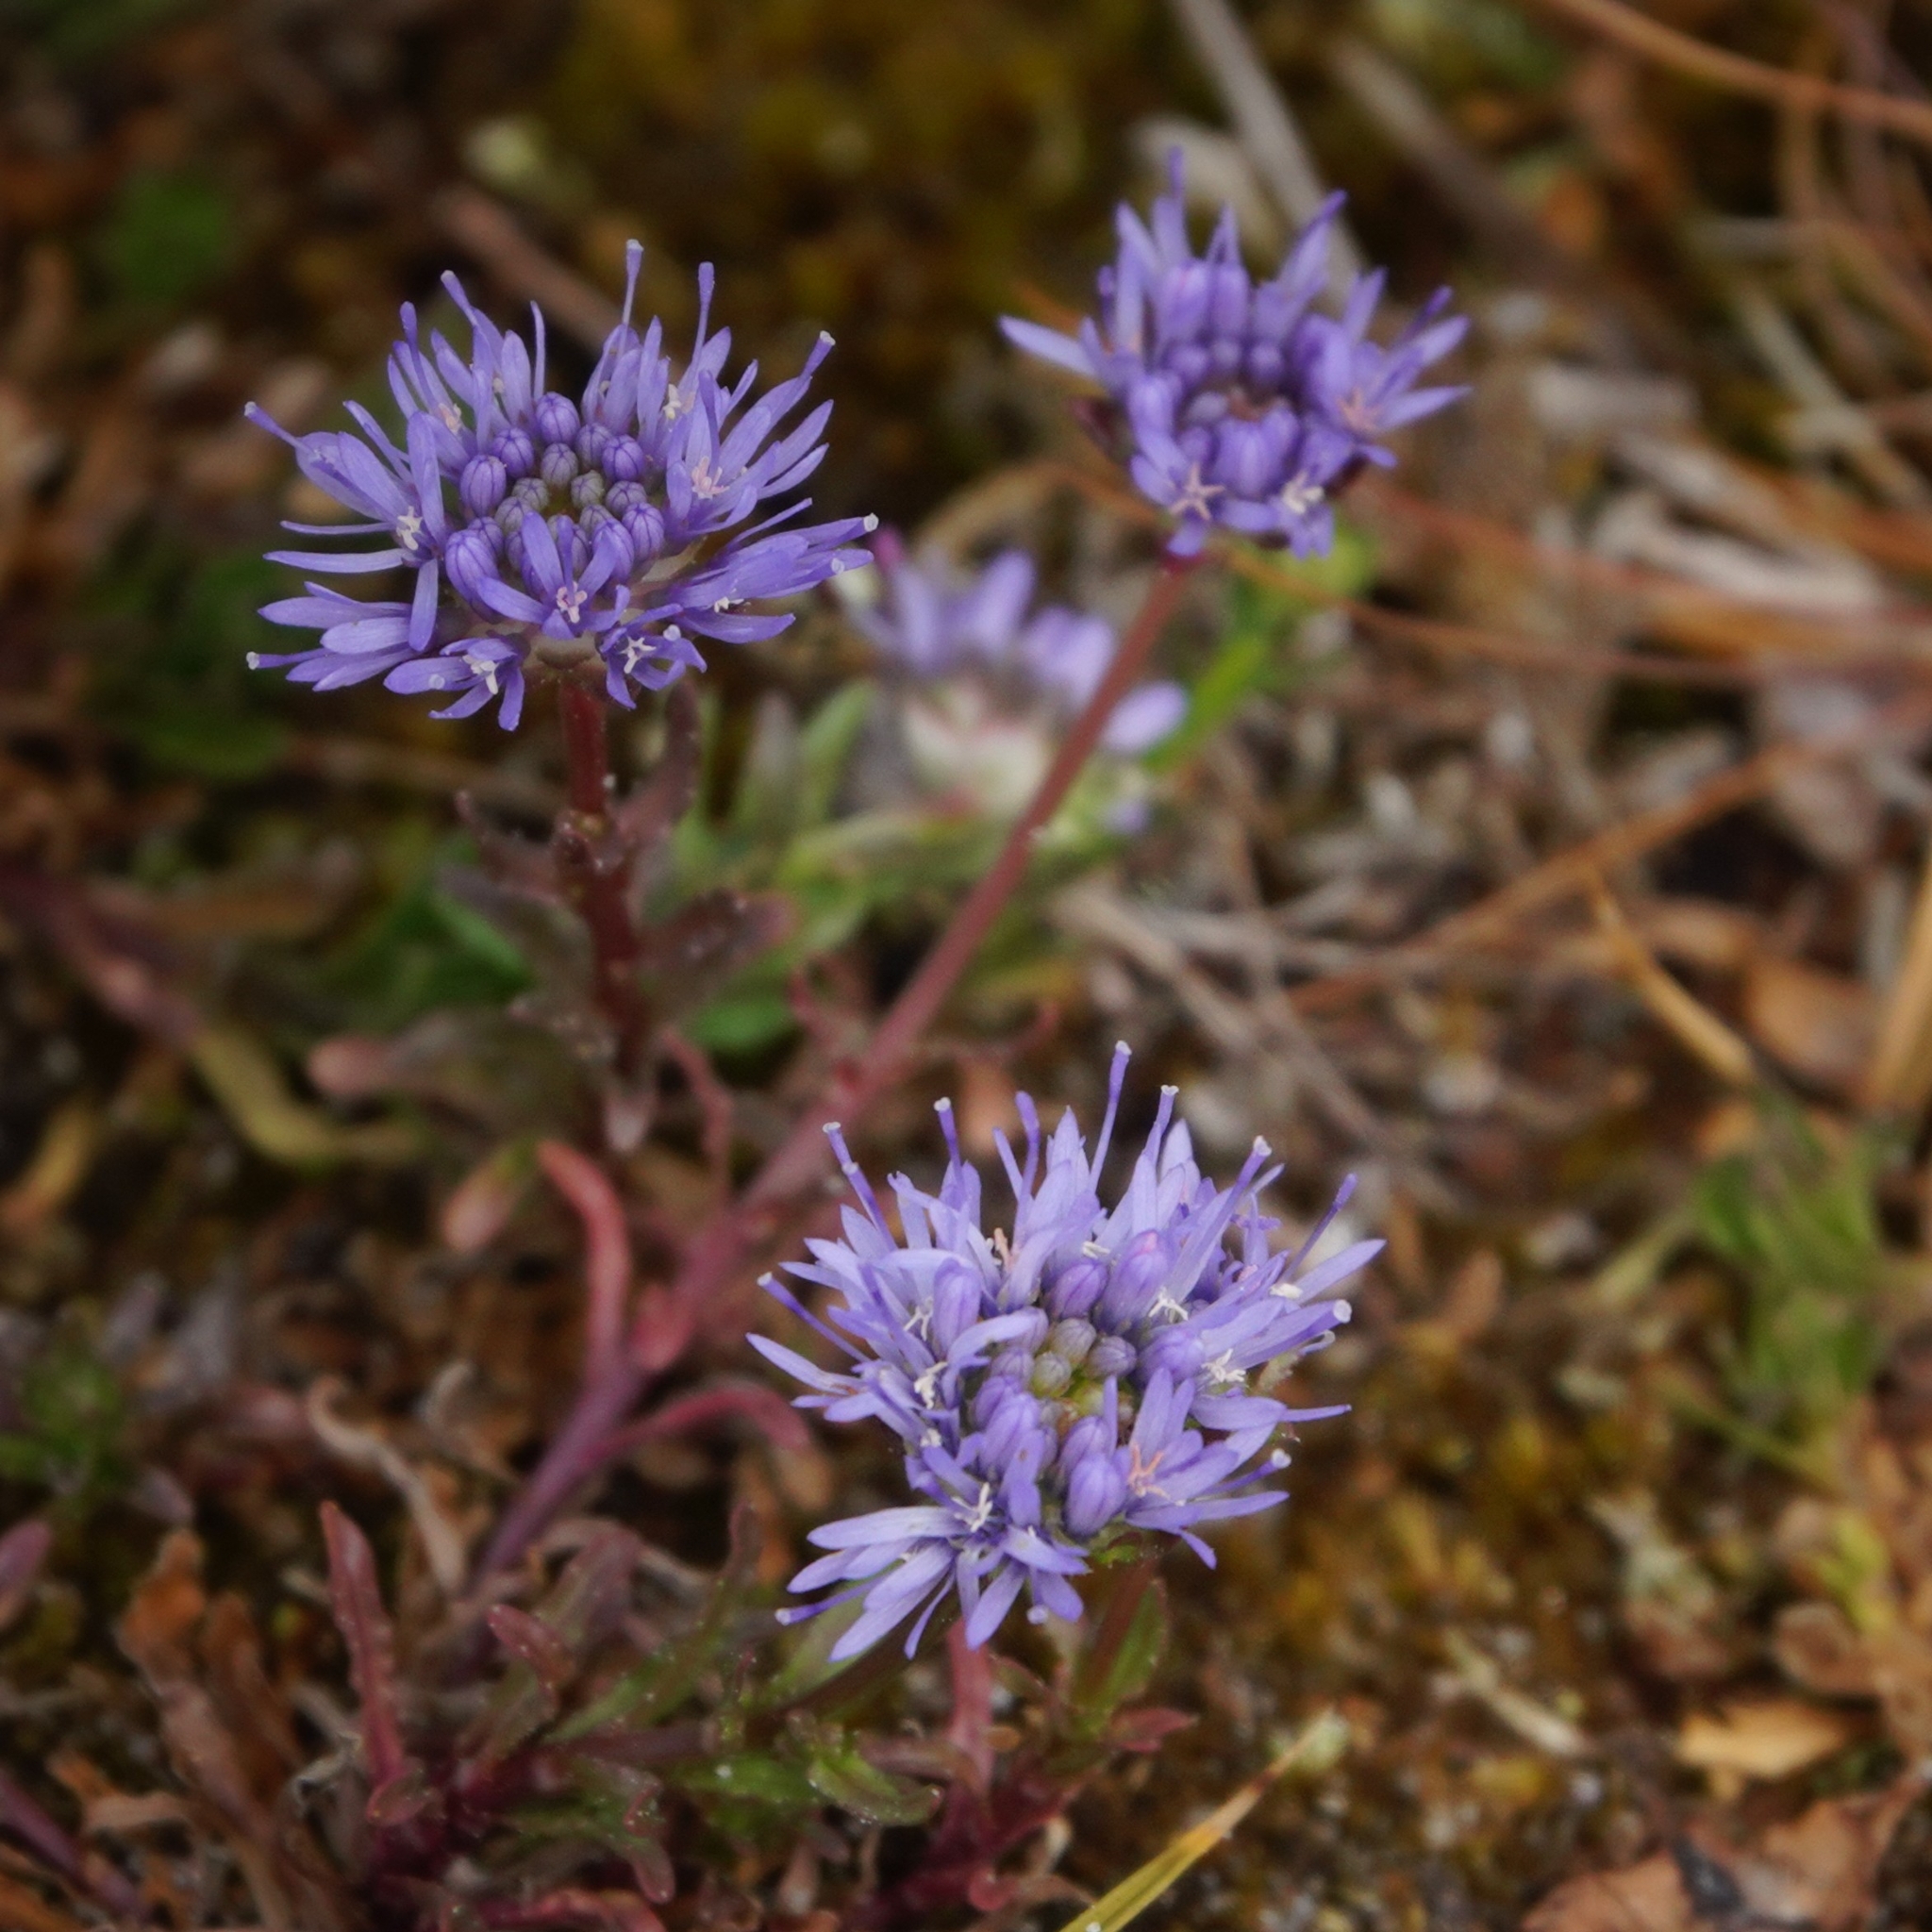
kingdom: Plantae
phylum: Tracheophyta
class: Magnoliopsida
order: Asterales
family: Campanulaceae
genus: Jasione
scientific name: Jasione montana
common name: Sheep's-bit
